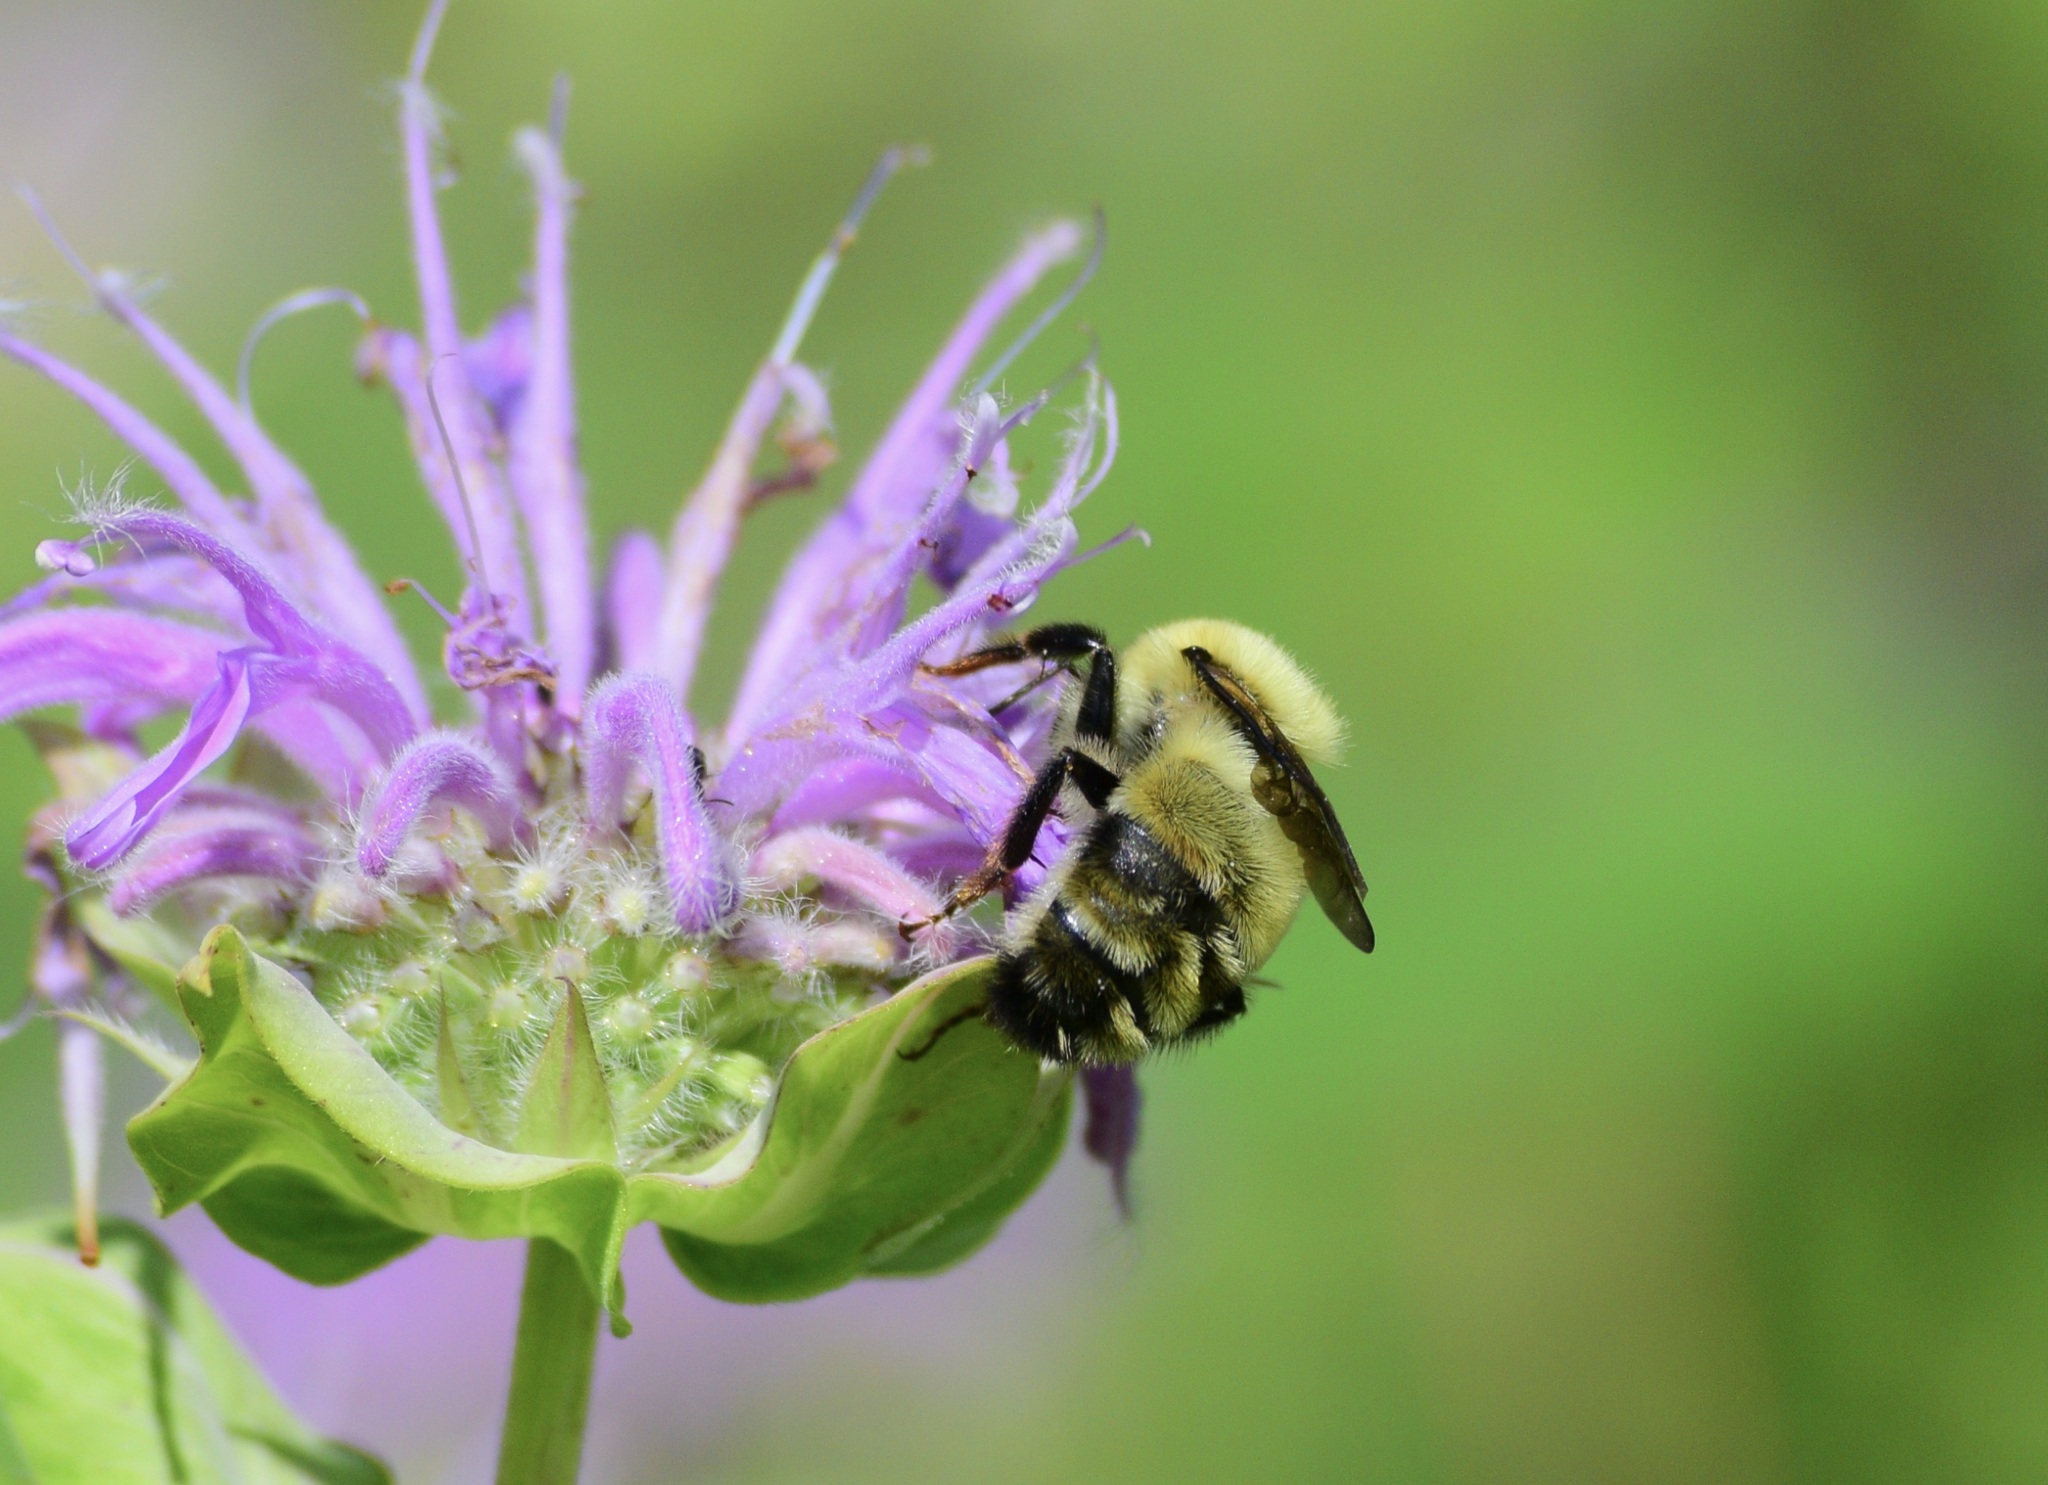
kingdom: Animalia
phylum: Arthropoda
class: Insecta
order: Hymenoptera
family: Apidae
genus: Bombus
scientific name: Bombus bimaculatus
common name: Two-spotted bumble bee
